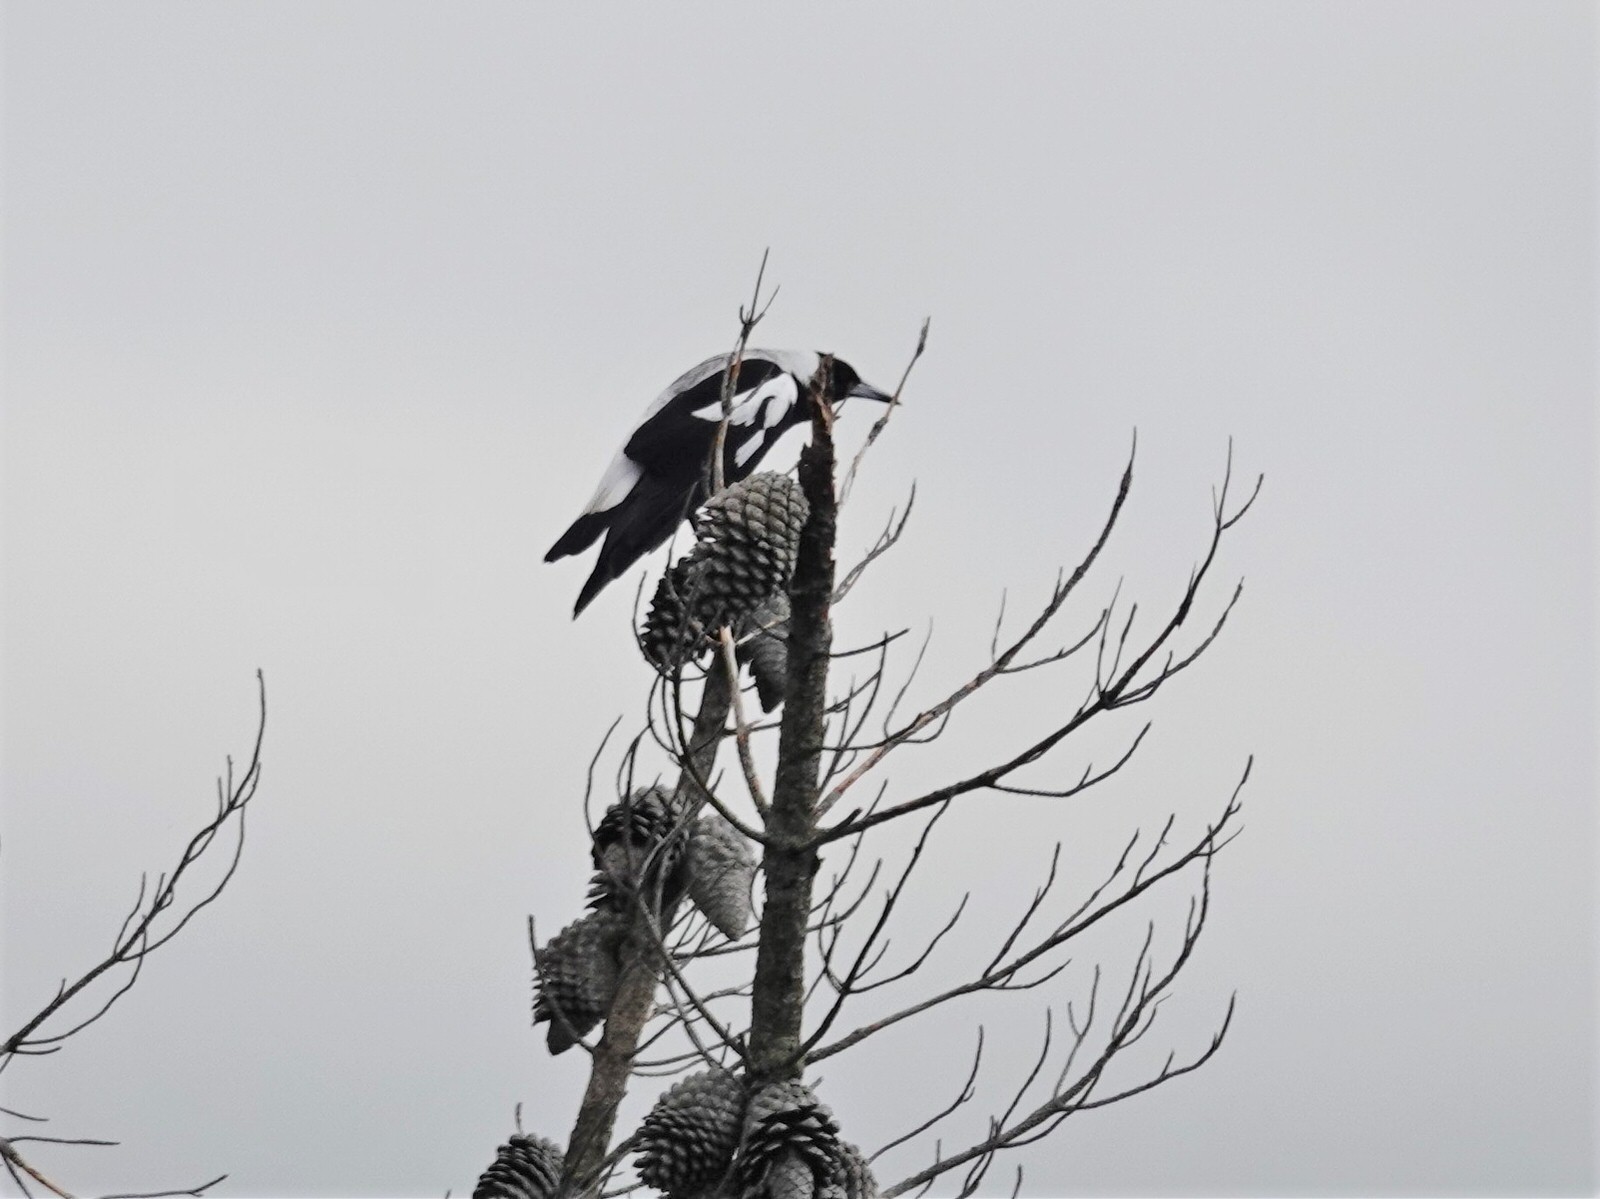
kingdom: Animalia
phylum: Chordata
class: Aves
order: Passeriformes
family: Cracticidae
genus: Gymnorhina
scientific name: Gymnorhina tibicen
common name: Australian magpie
